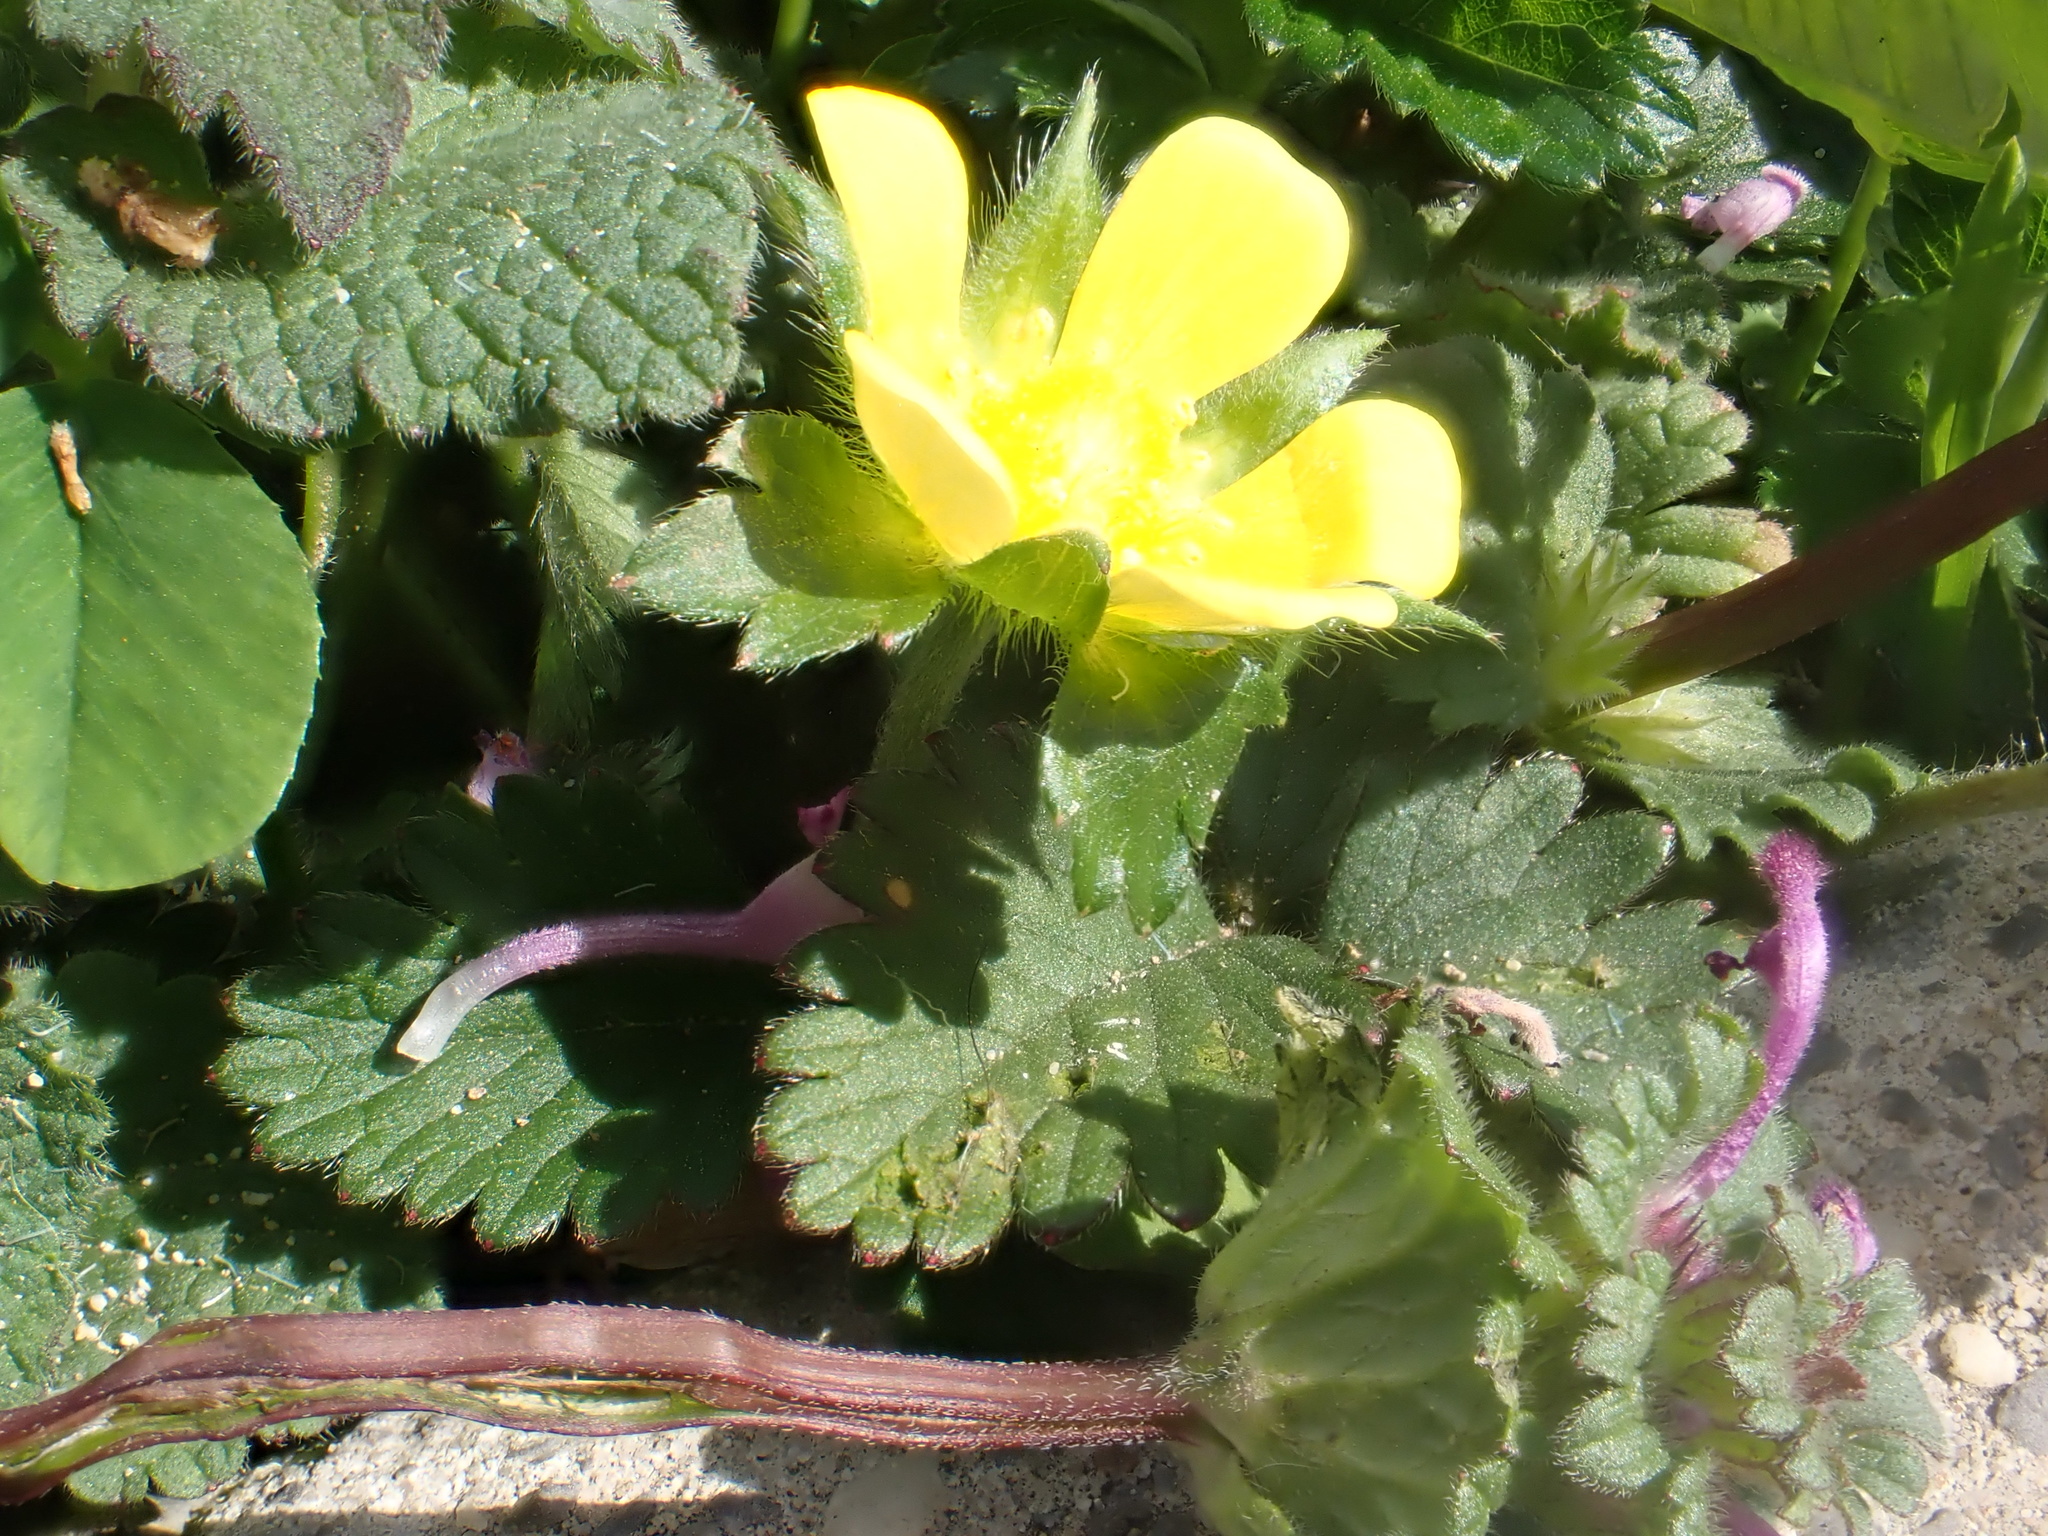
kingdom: Plantae
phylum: Tracheophyta
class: Magnoliopsida
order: Rosales
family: Rosaceae
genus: Potentilla
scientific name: Potentilla indica
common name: Yellow-flowered strawberry
